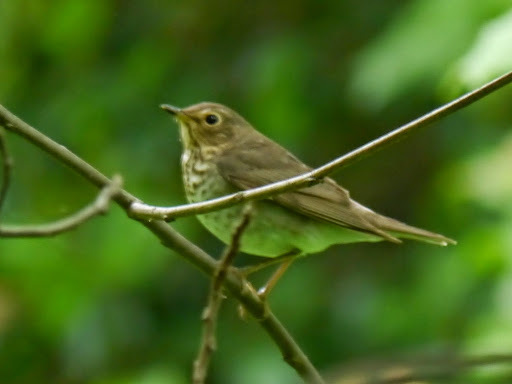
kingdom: Animalia
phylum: Chordata
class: Aves
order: Passeriformes
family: Turdidae
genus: Catharus
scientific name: Catharus ustulatus
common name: Swainson's thrush
